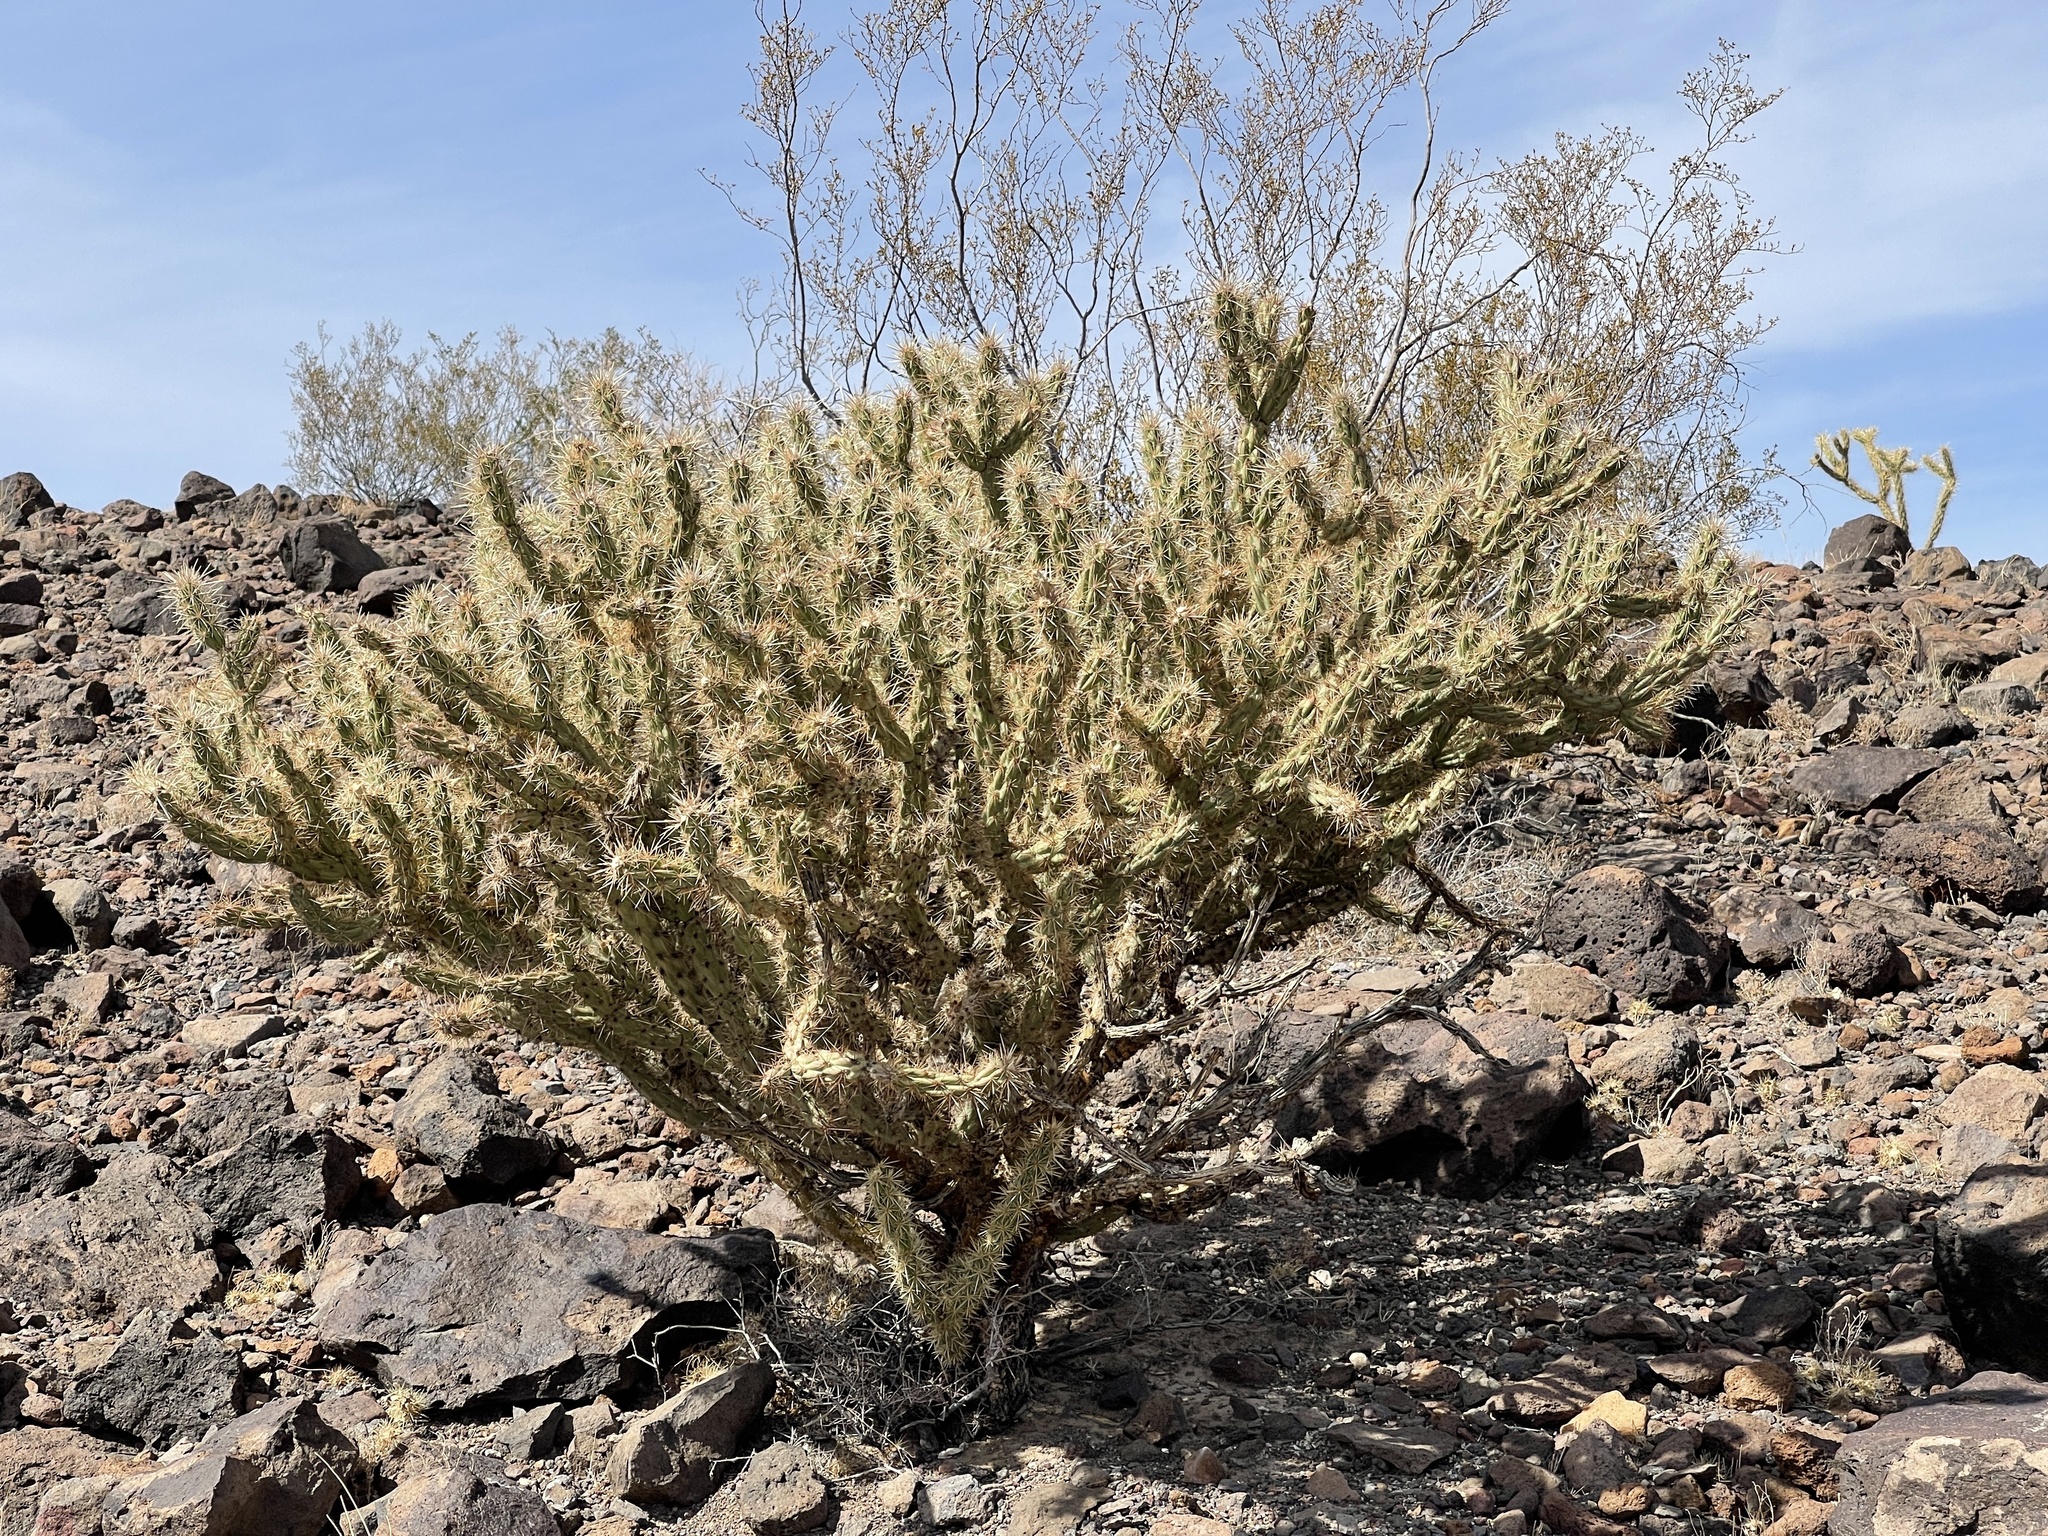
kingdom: Plantae
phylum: Tracheophyta
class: Magnoliopsida
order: Caryophyllales
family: Cactaceae
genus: Cylindropuntia
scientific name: Cylindropuntia acanthocarpa
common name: Buckhorn cholla
